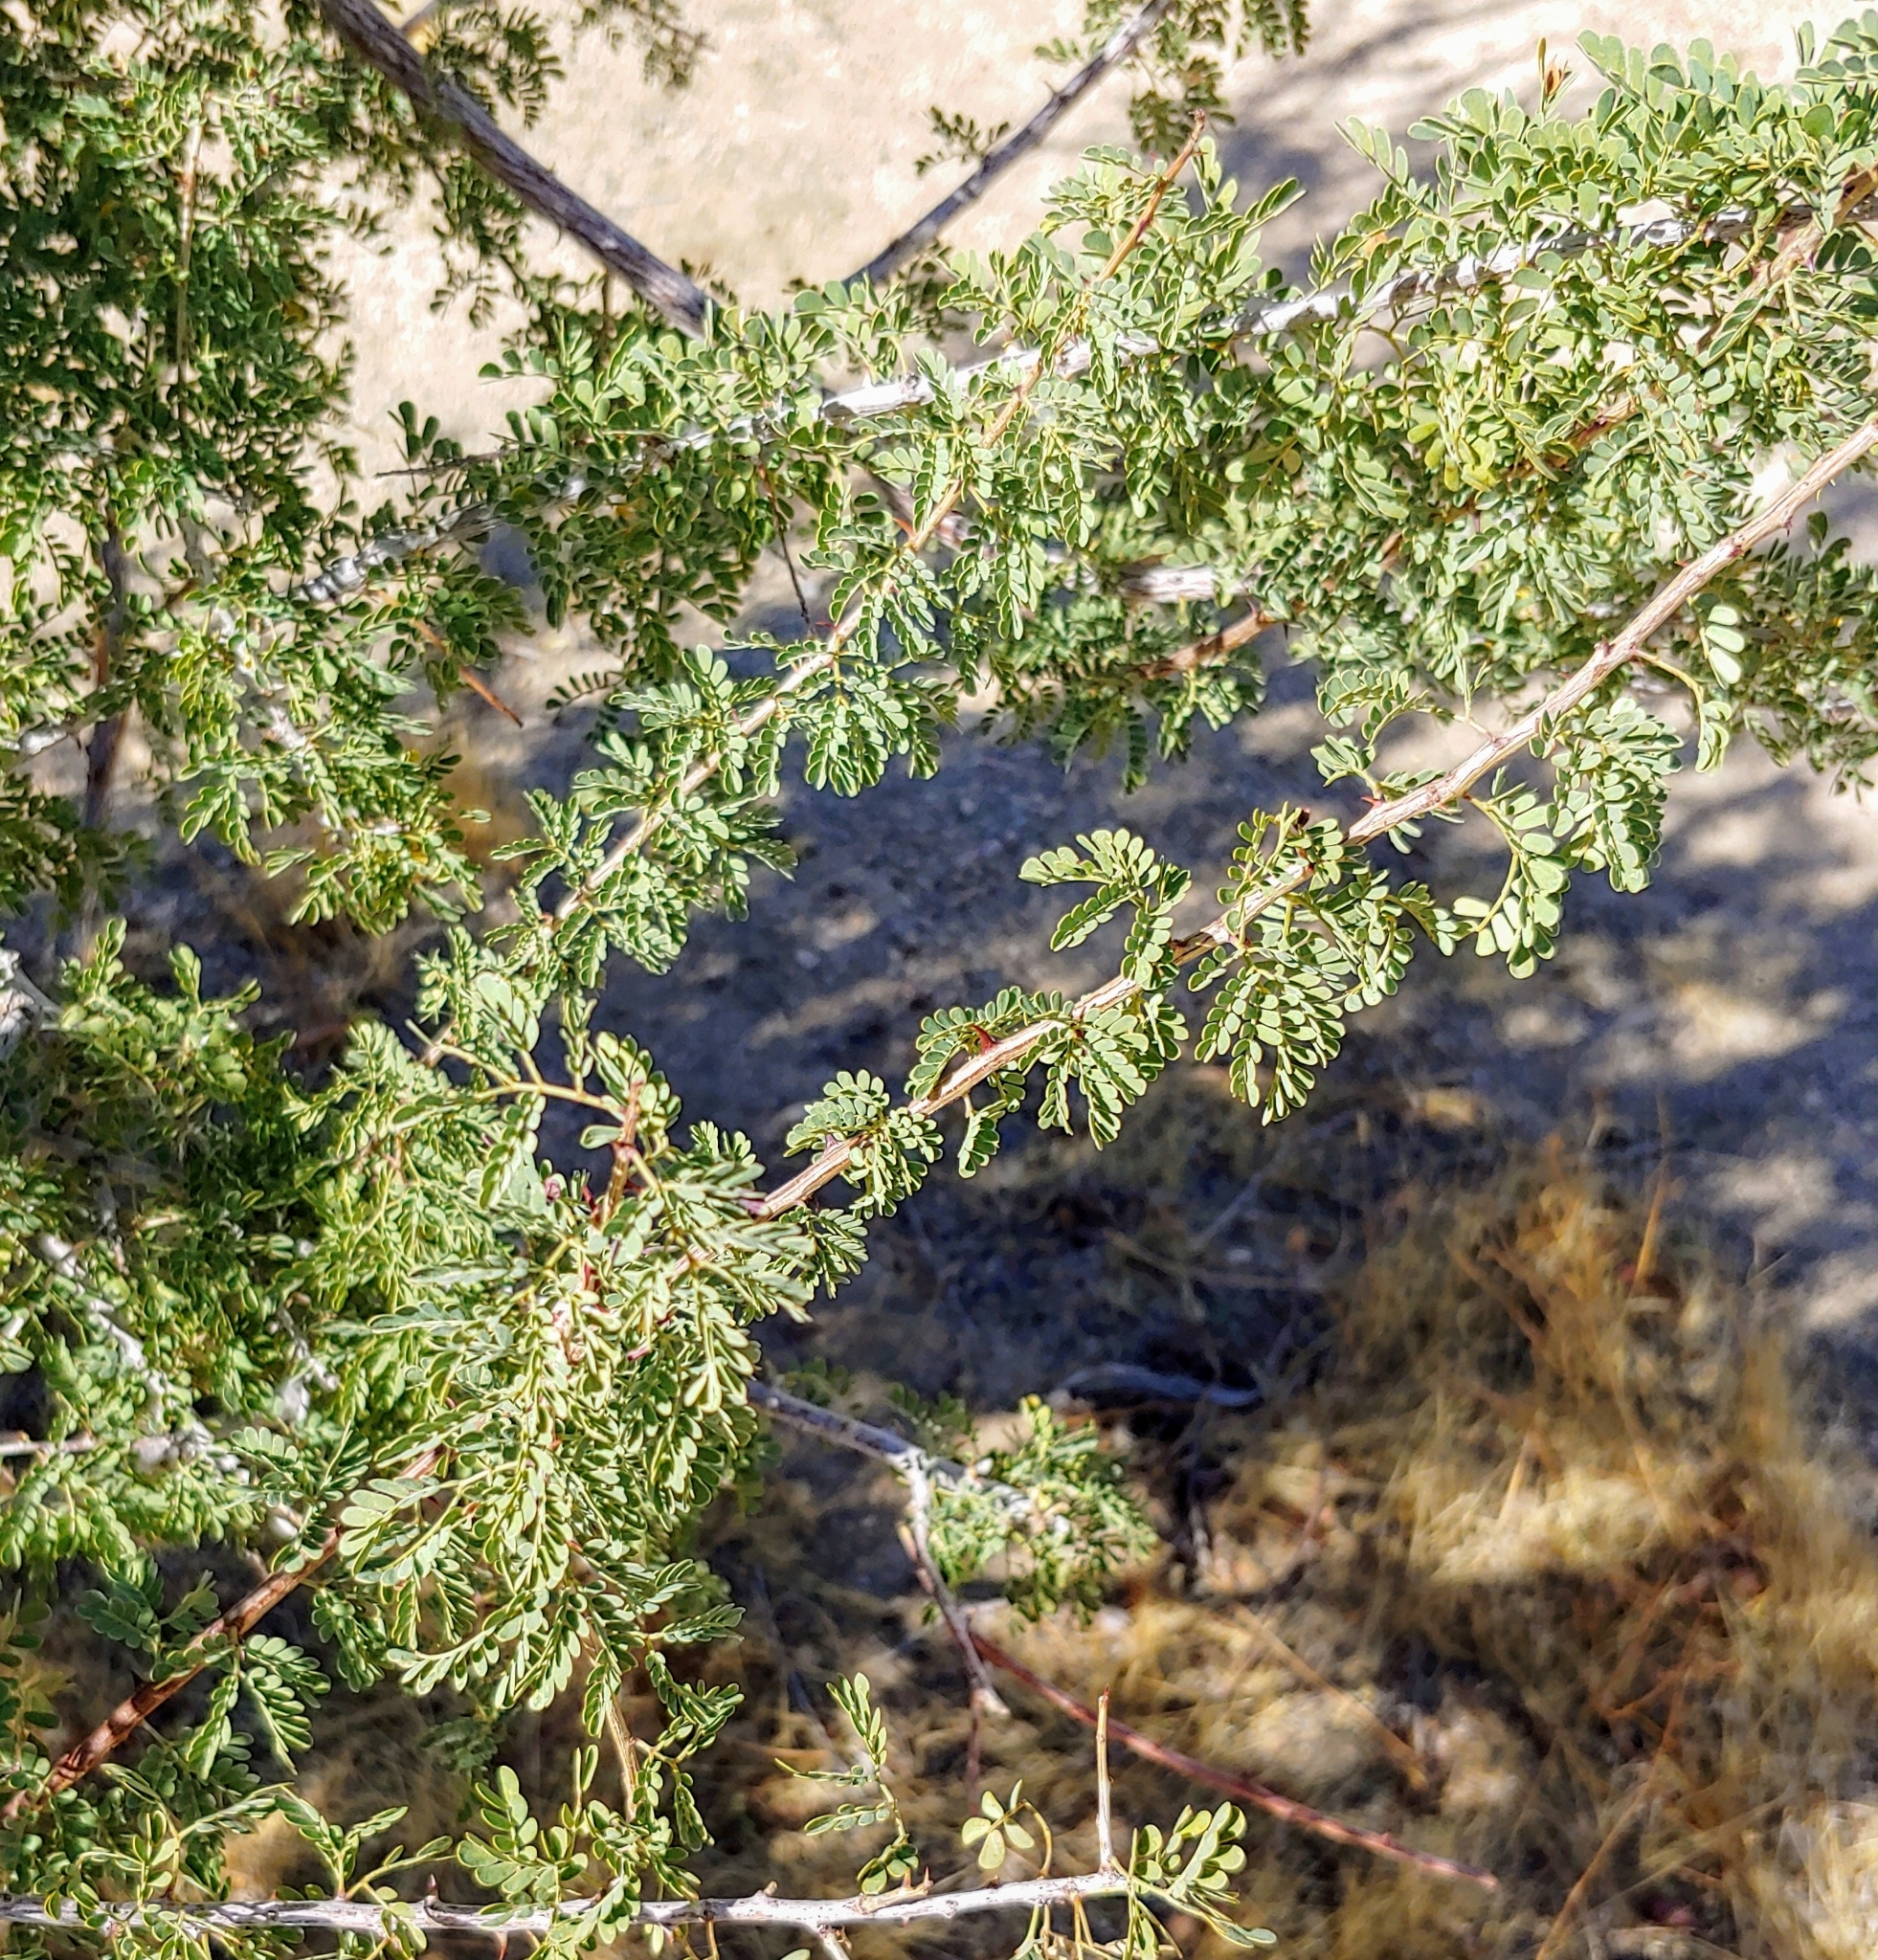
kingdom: Plantae
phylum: Tracheophyta
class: Magnoliopsida
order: Fabales
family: Fabaceae
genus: Senegalia
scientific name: Senegalia greggii
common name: Texas-mimosa
